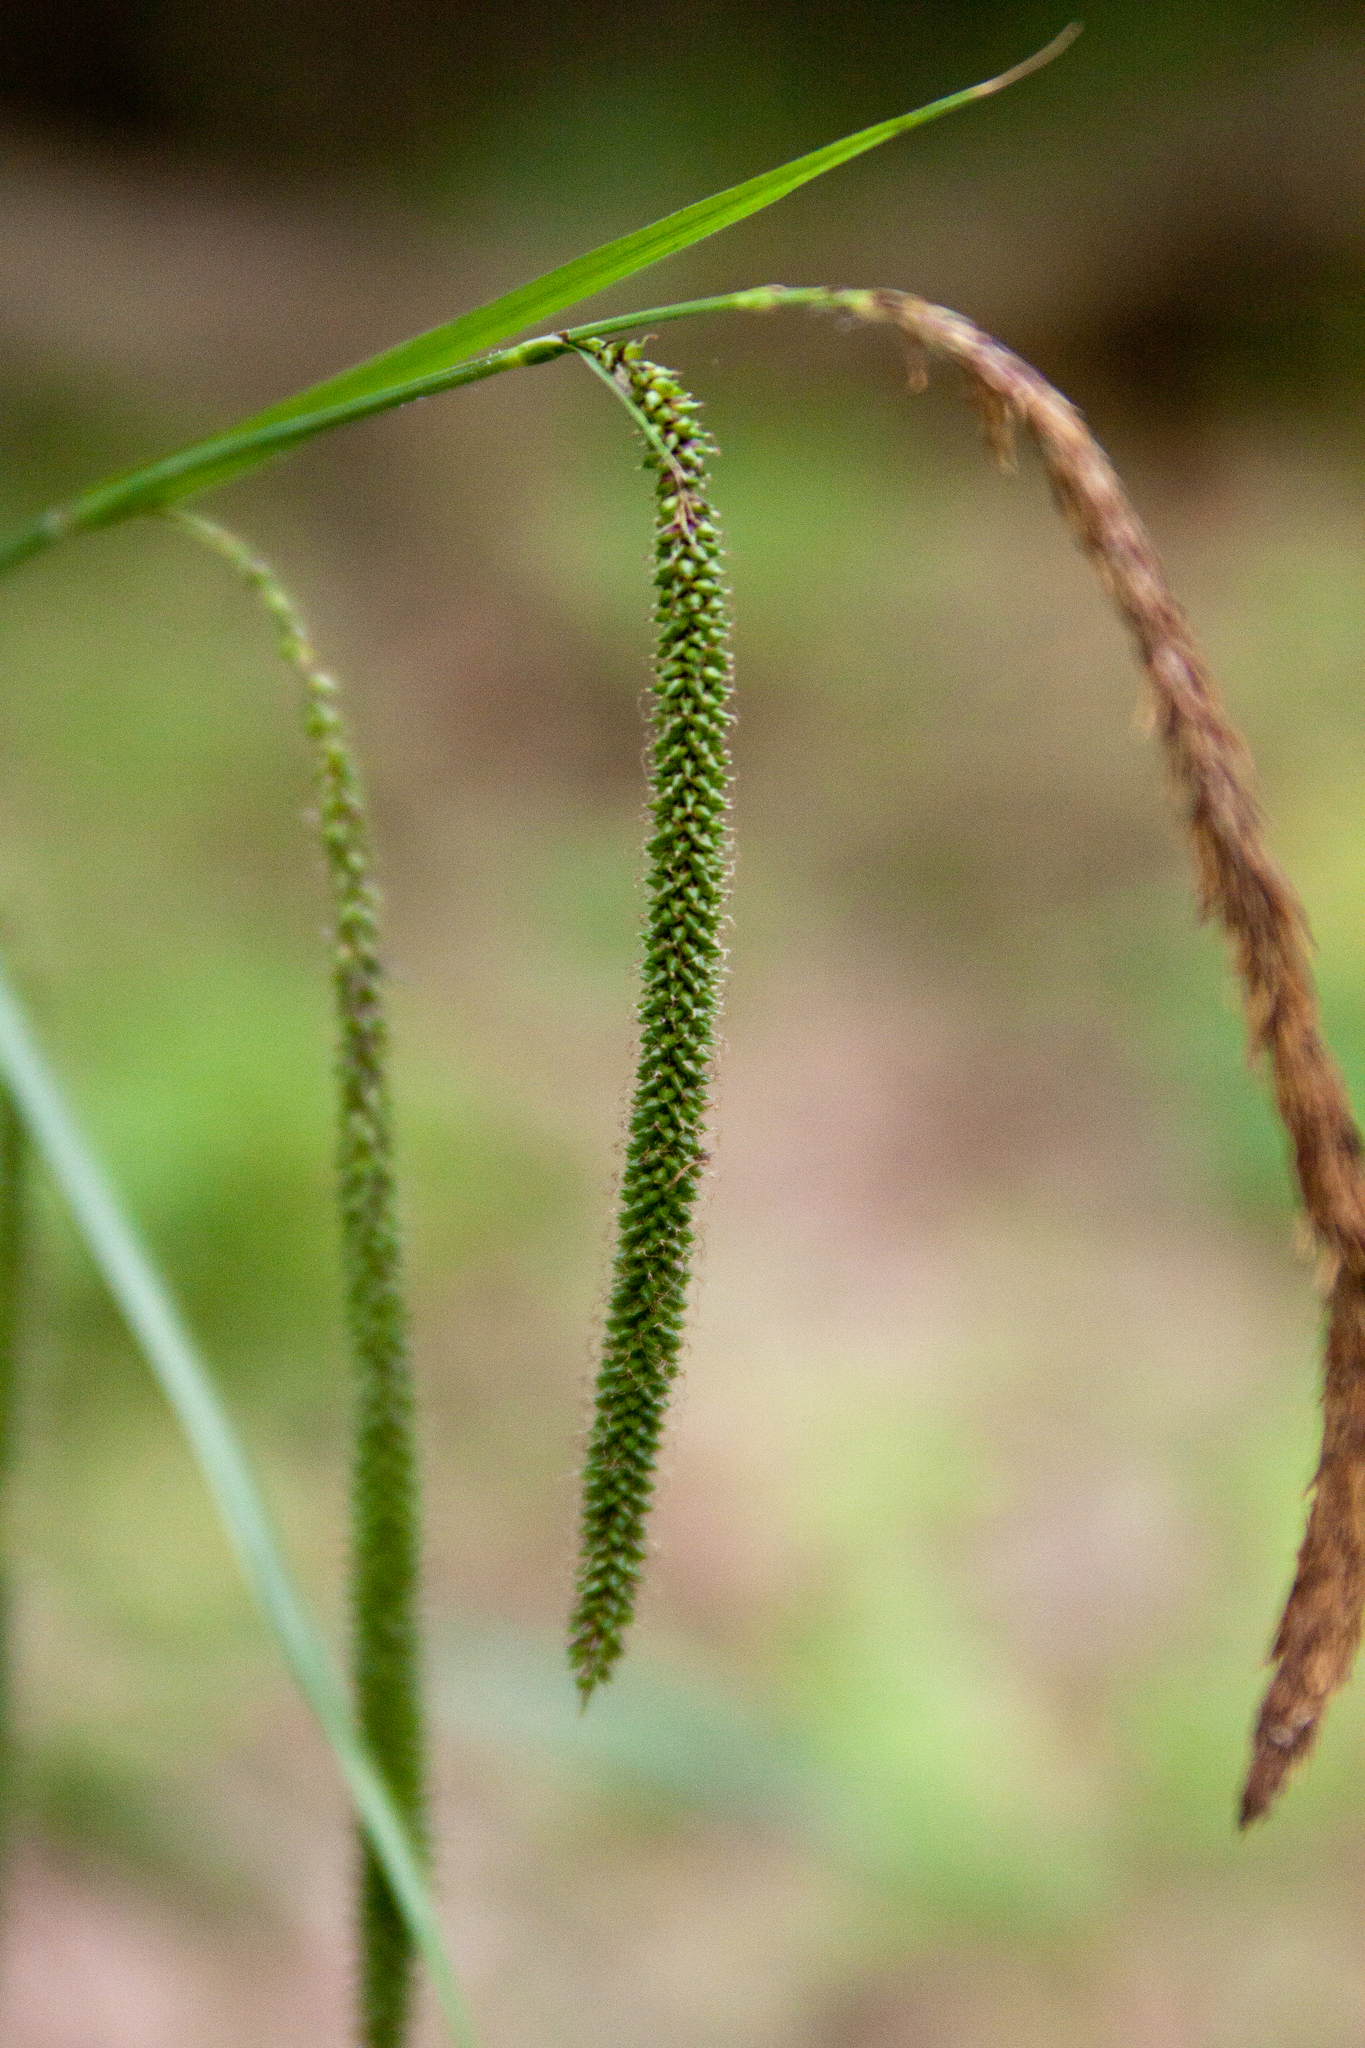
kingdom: Plantae
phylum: Tracheophyta
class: Liliopsida
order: Poales
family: Cyperaceae
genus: Carex
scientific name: Carex pendula
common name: Pendulous sedge
